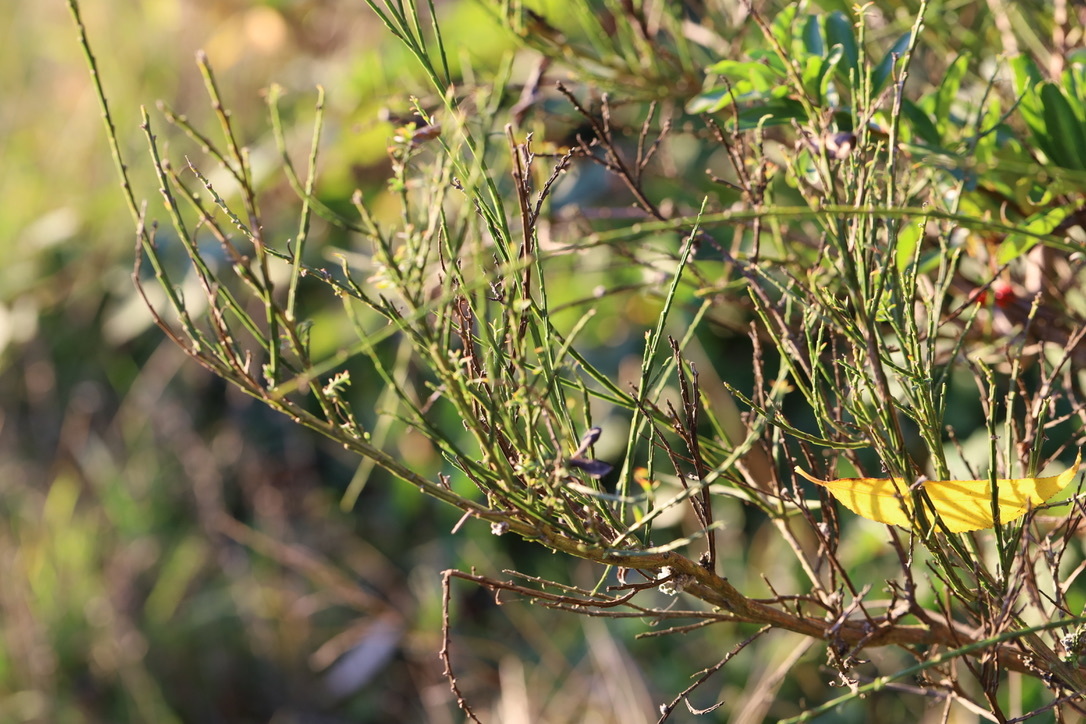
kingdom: Plantae
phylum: Tracheophyta
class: Magnoliopsida
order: Fabales
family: Fabaceae
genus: Cytisus
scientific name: Cytisus scoparius
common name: Scotch broom
